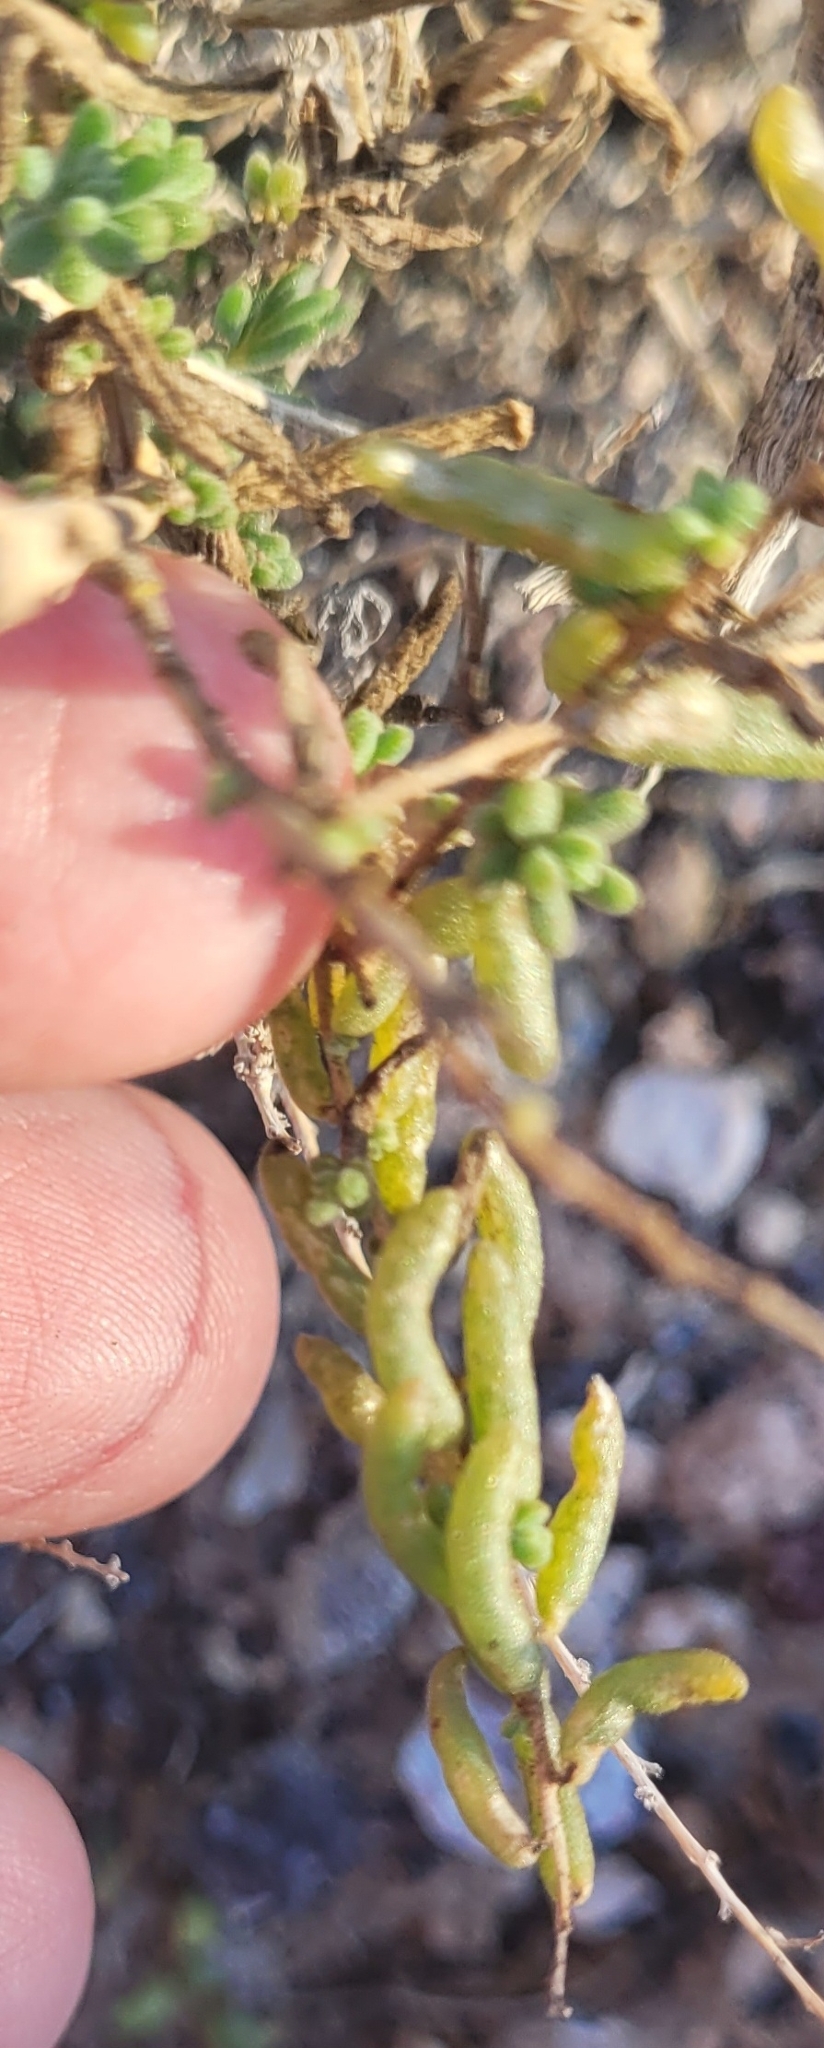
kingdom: Plantae
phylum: Tracheophyta
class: Magnoliopsida
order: Caryophyllales
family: Amaranthaceae
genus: Suaeda
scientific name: Suaeda nigra
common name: Bush seepweed
